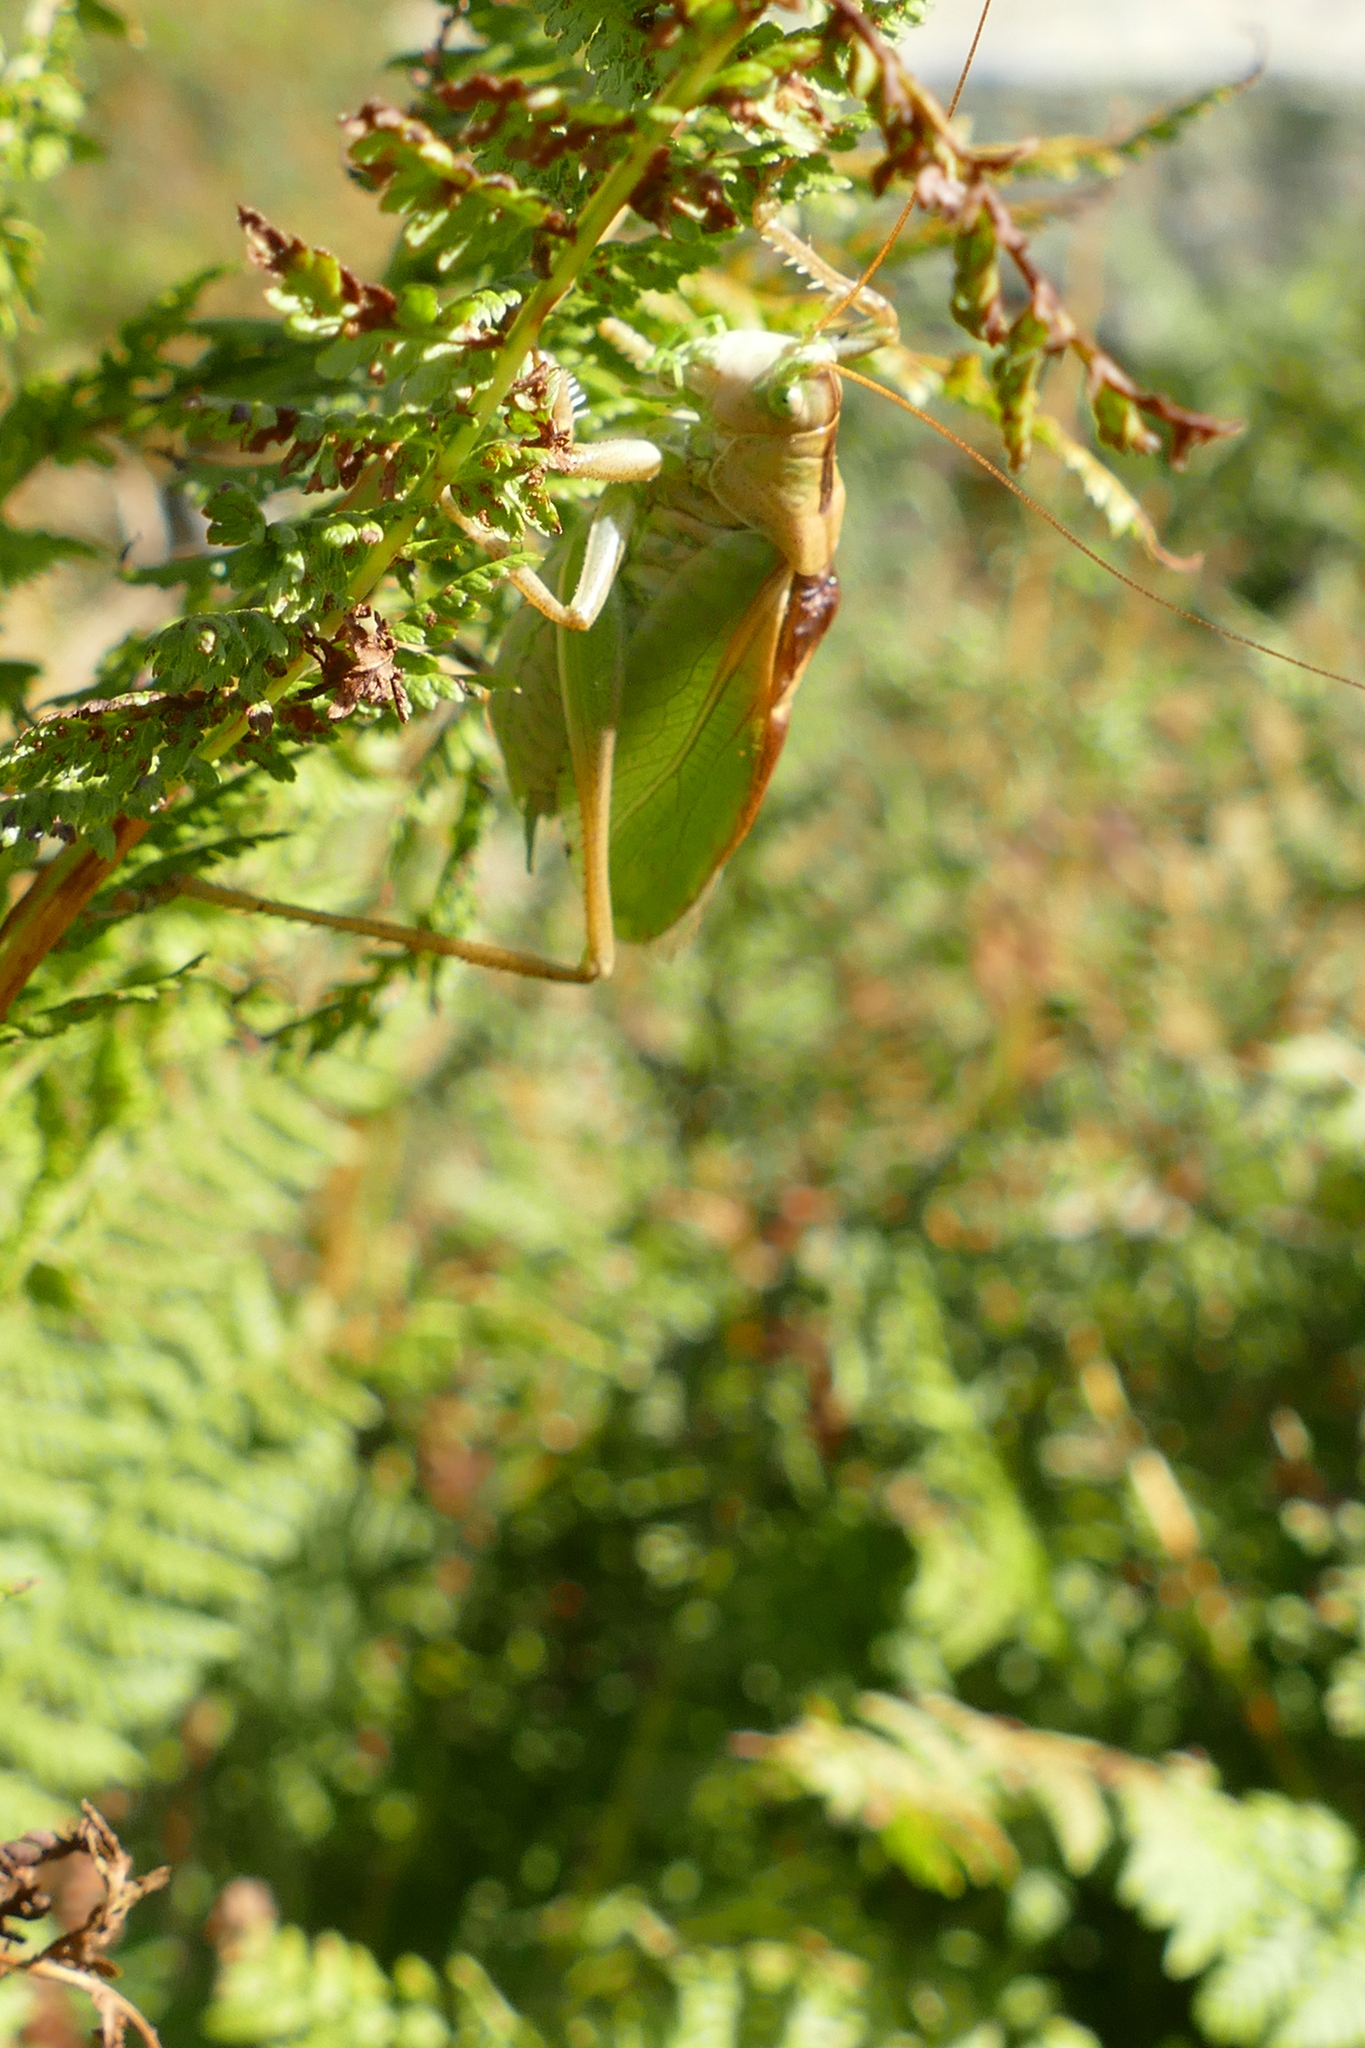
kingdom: Animalia
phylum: Arthropoda
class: Insecta
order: Orthoptera
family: Tettigoniidae
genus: Tettigonia
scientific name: Tettigonia cantans
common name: Upland green bush-cricket
